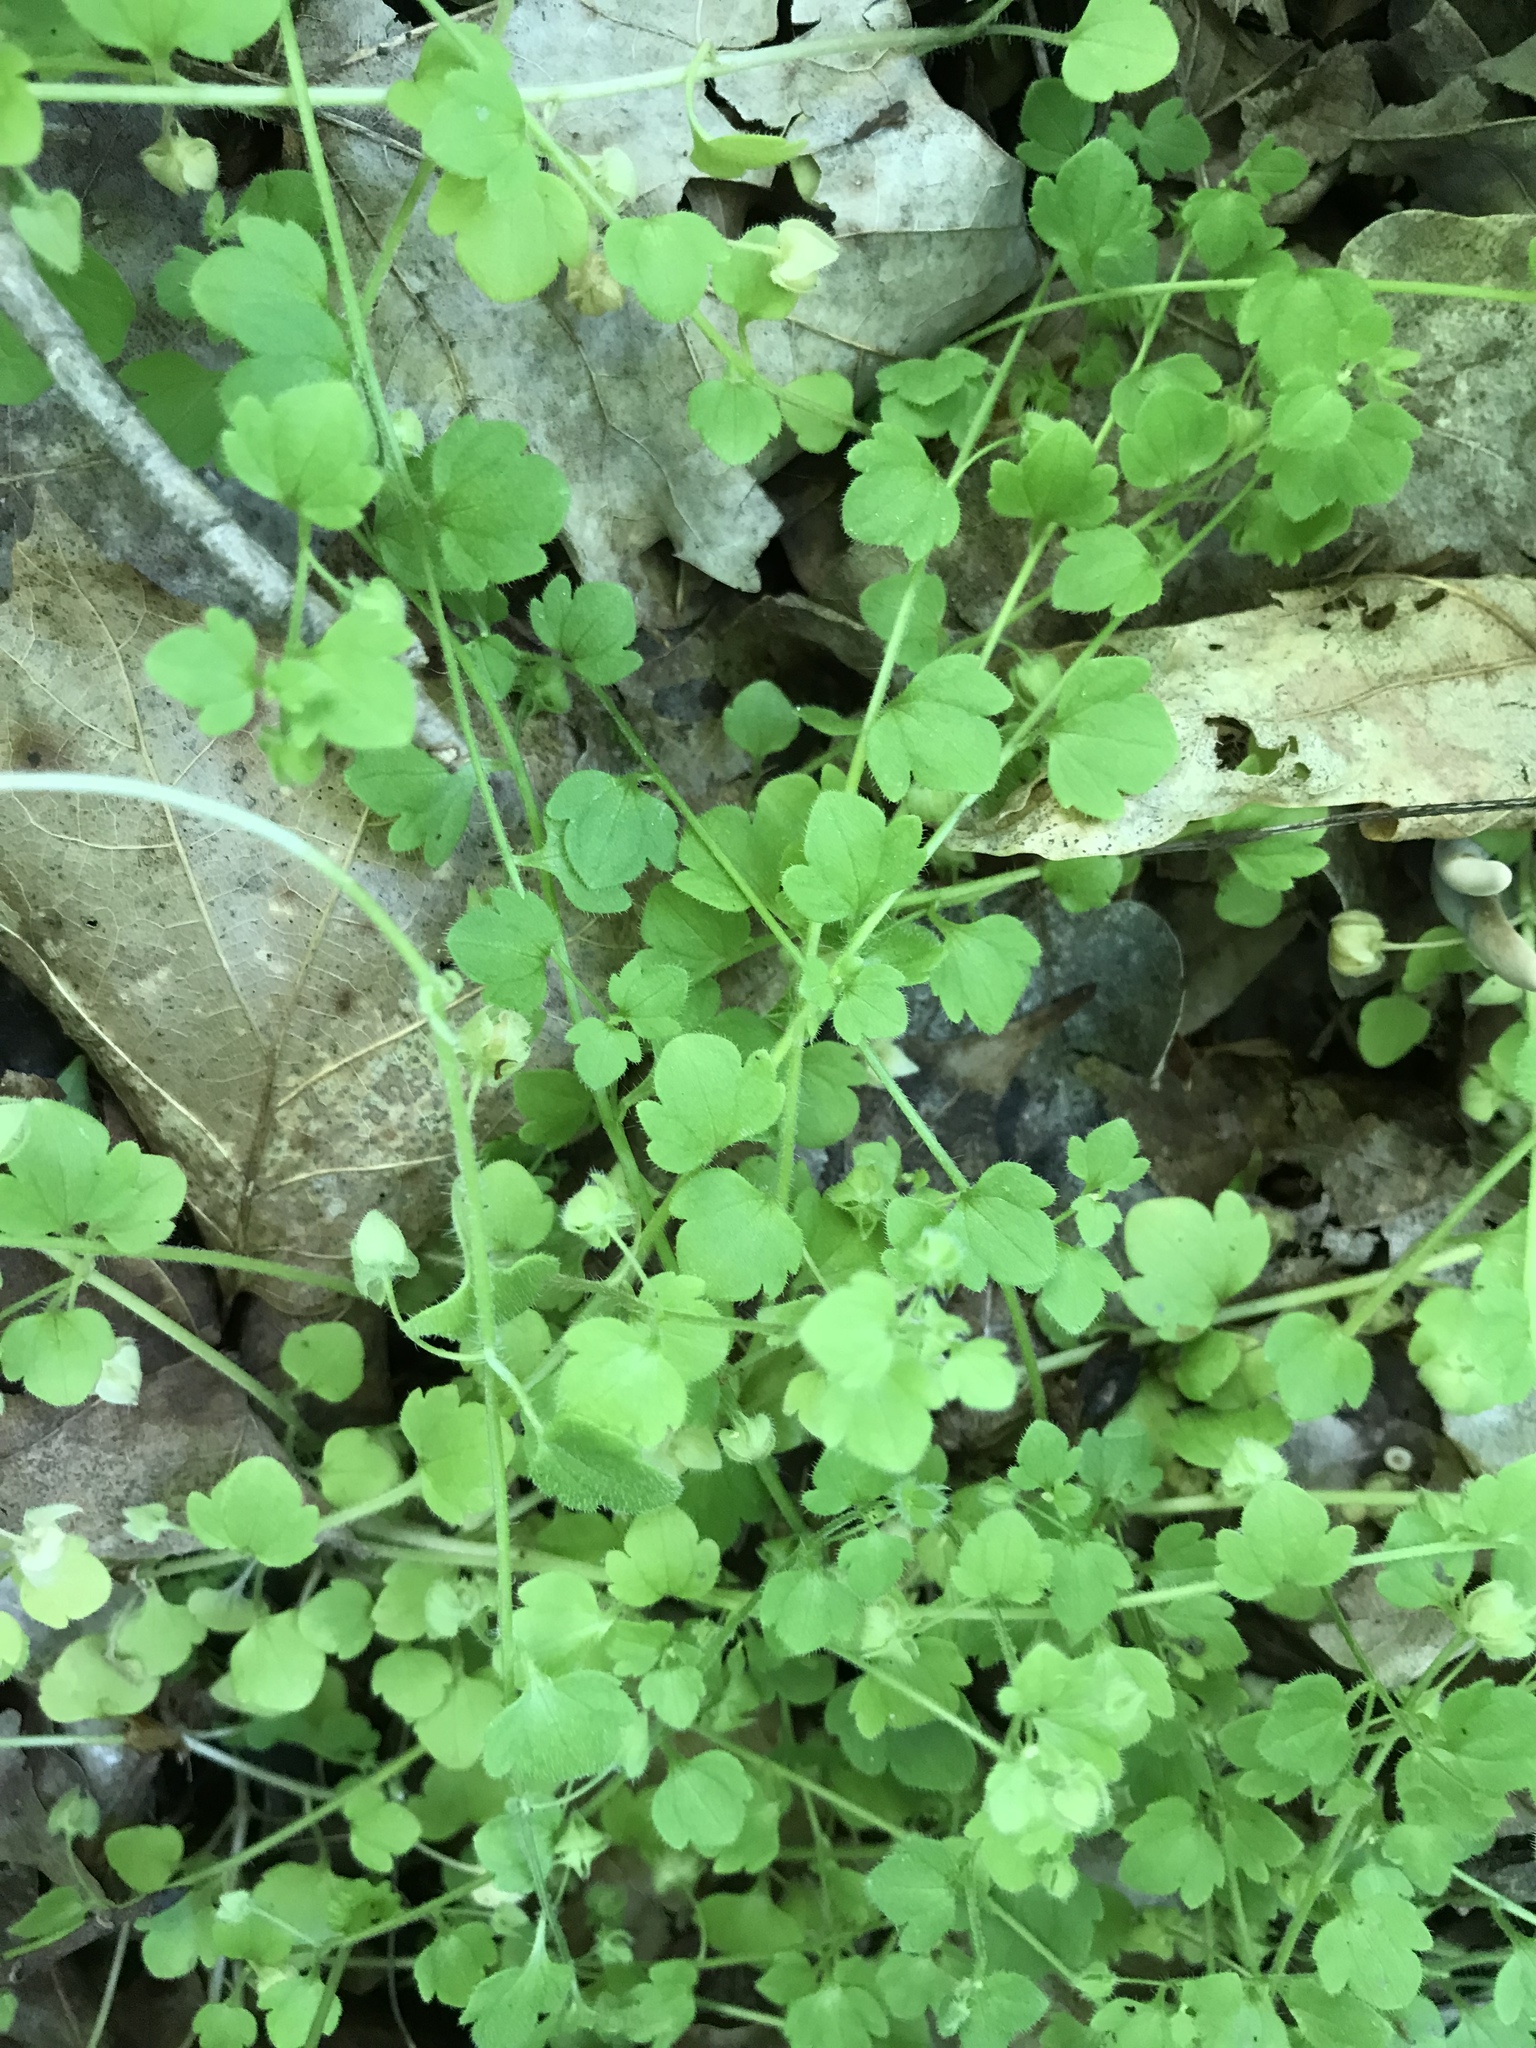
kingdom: Plantae
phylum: Tracheophyta
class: Magnoliopsida
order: Lamiales
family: Plantaginaceae
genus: Veronica
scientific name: Veronica hederifolia
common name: Ivy-leaved speedwell
